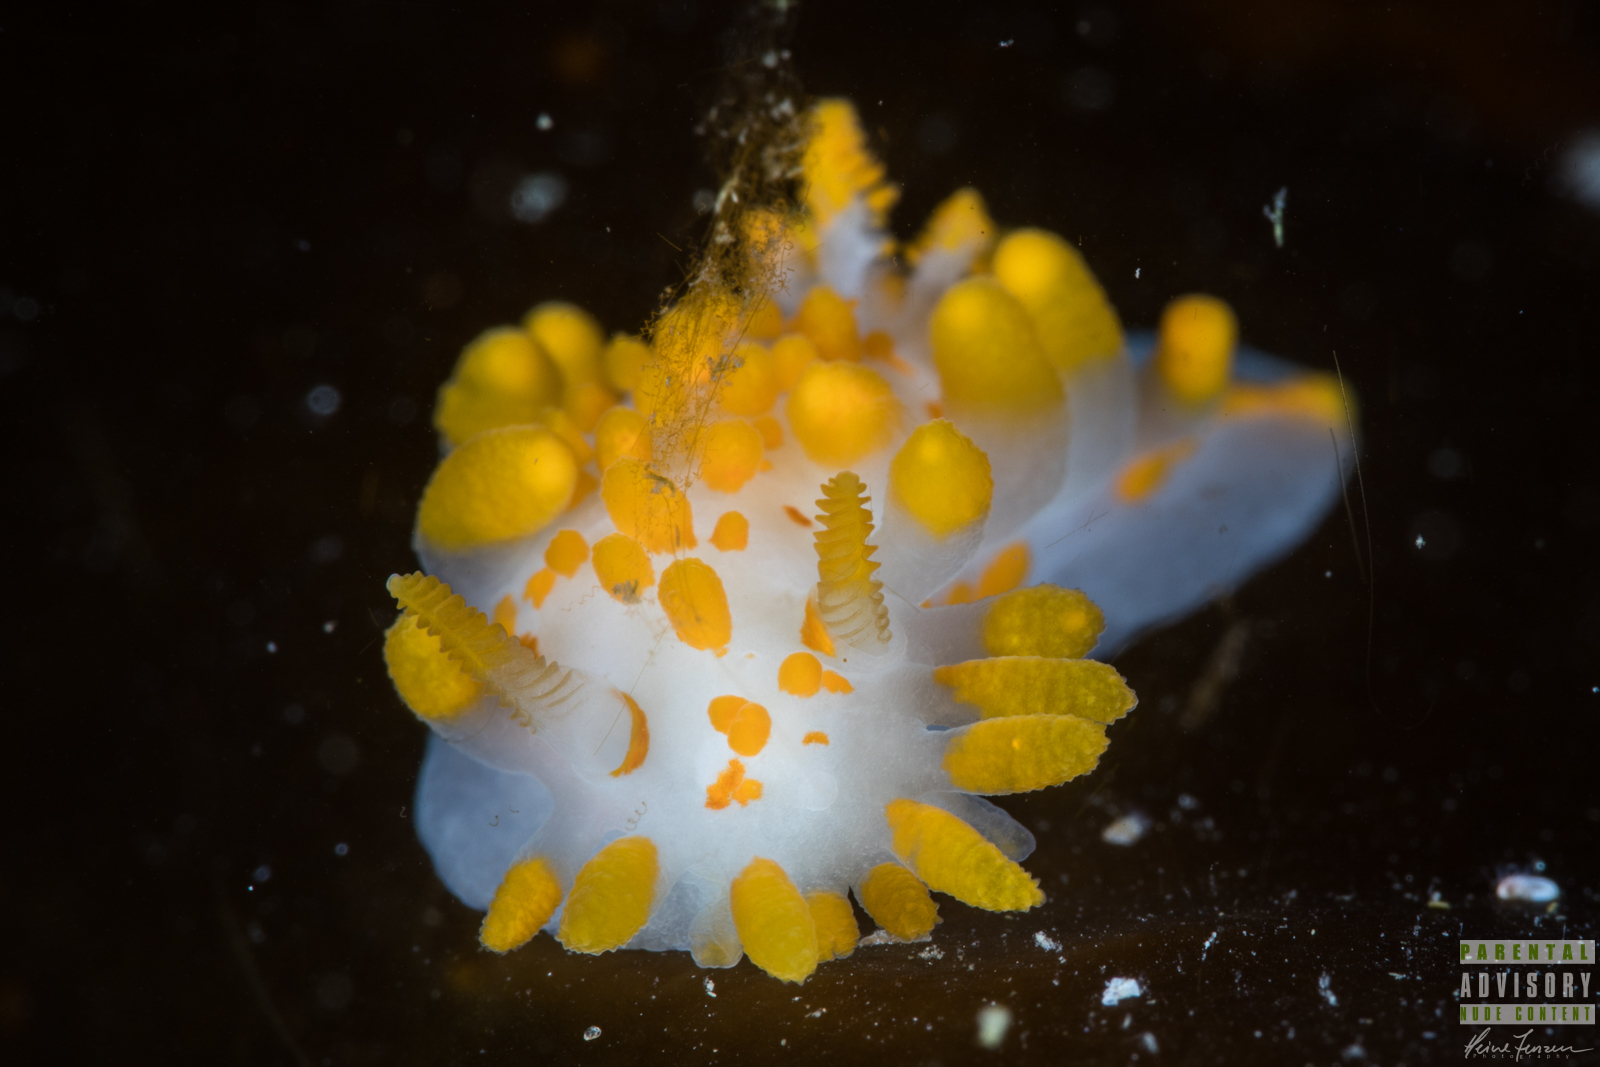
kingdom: Animalia
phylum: Mollusca
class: Gastropoda
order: Nudibranchia
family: Polyceridae
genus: Limacia
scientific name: Limacia clavigera
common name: Orange-clubbed sea slug
